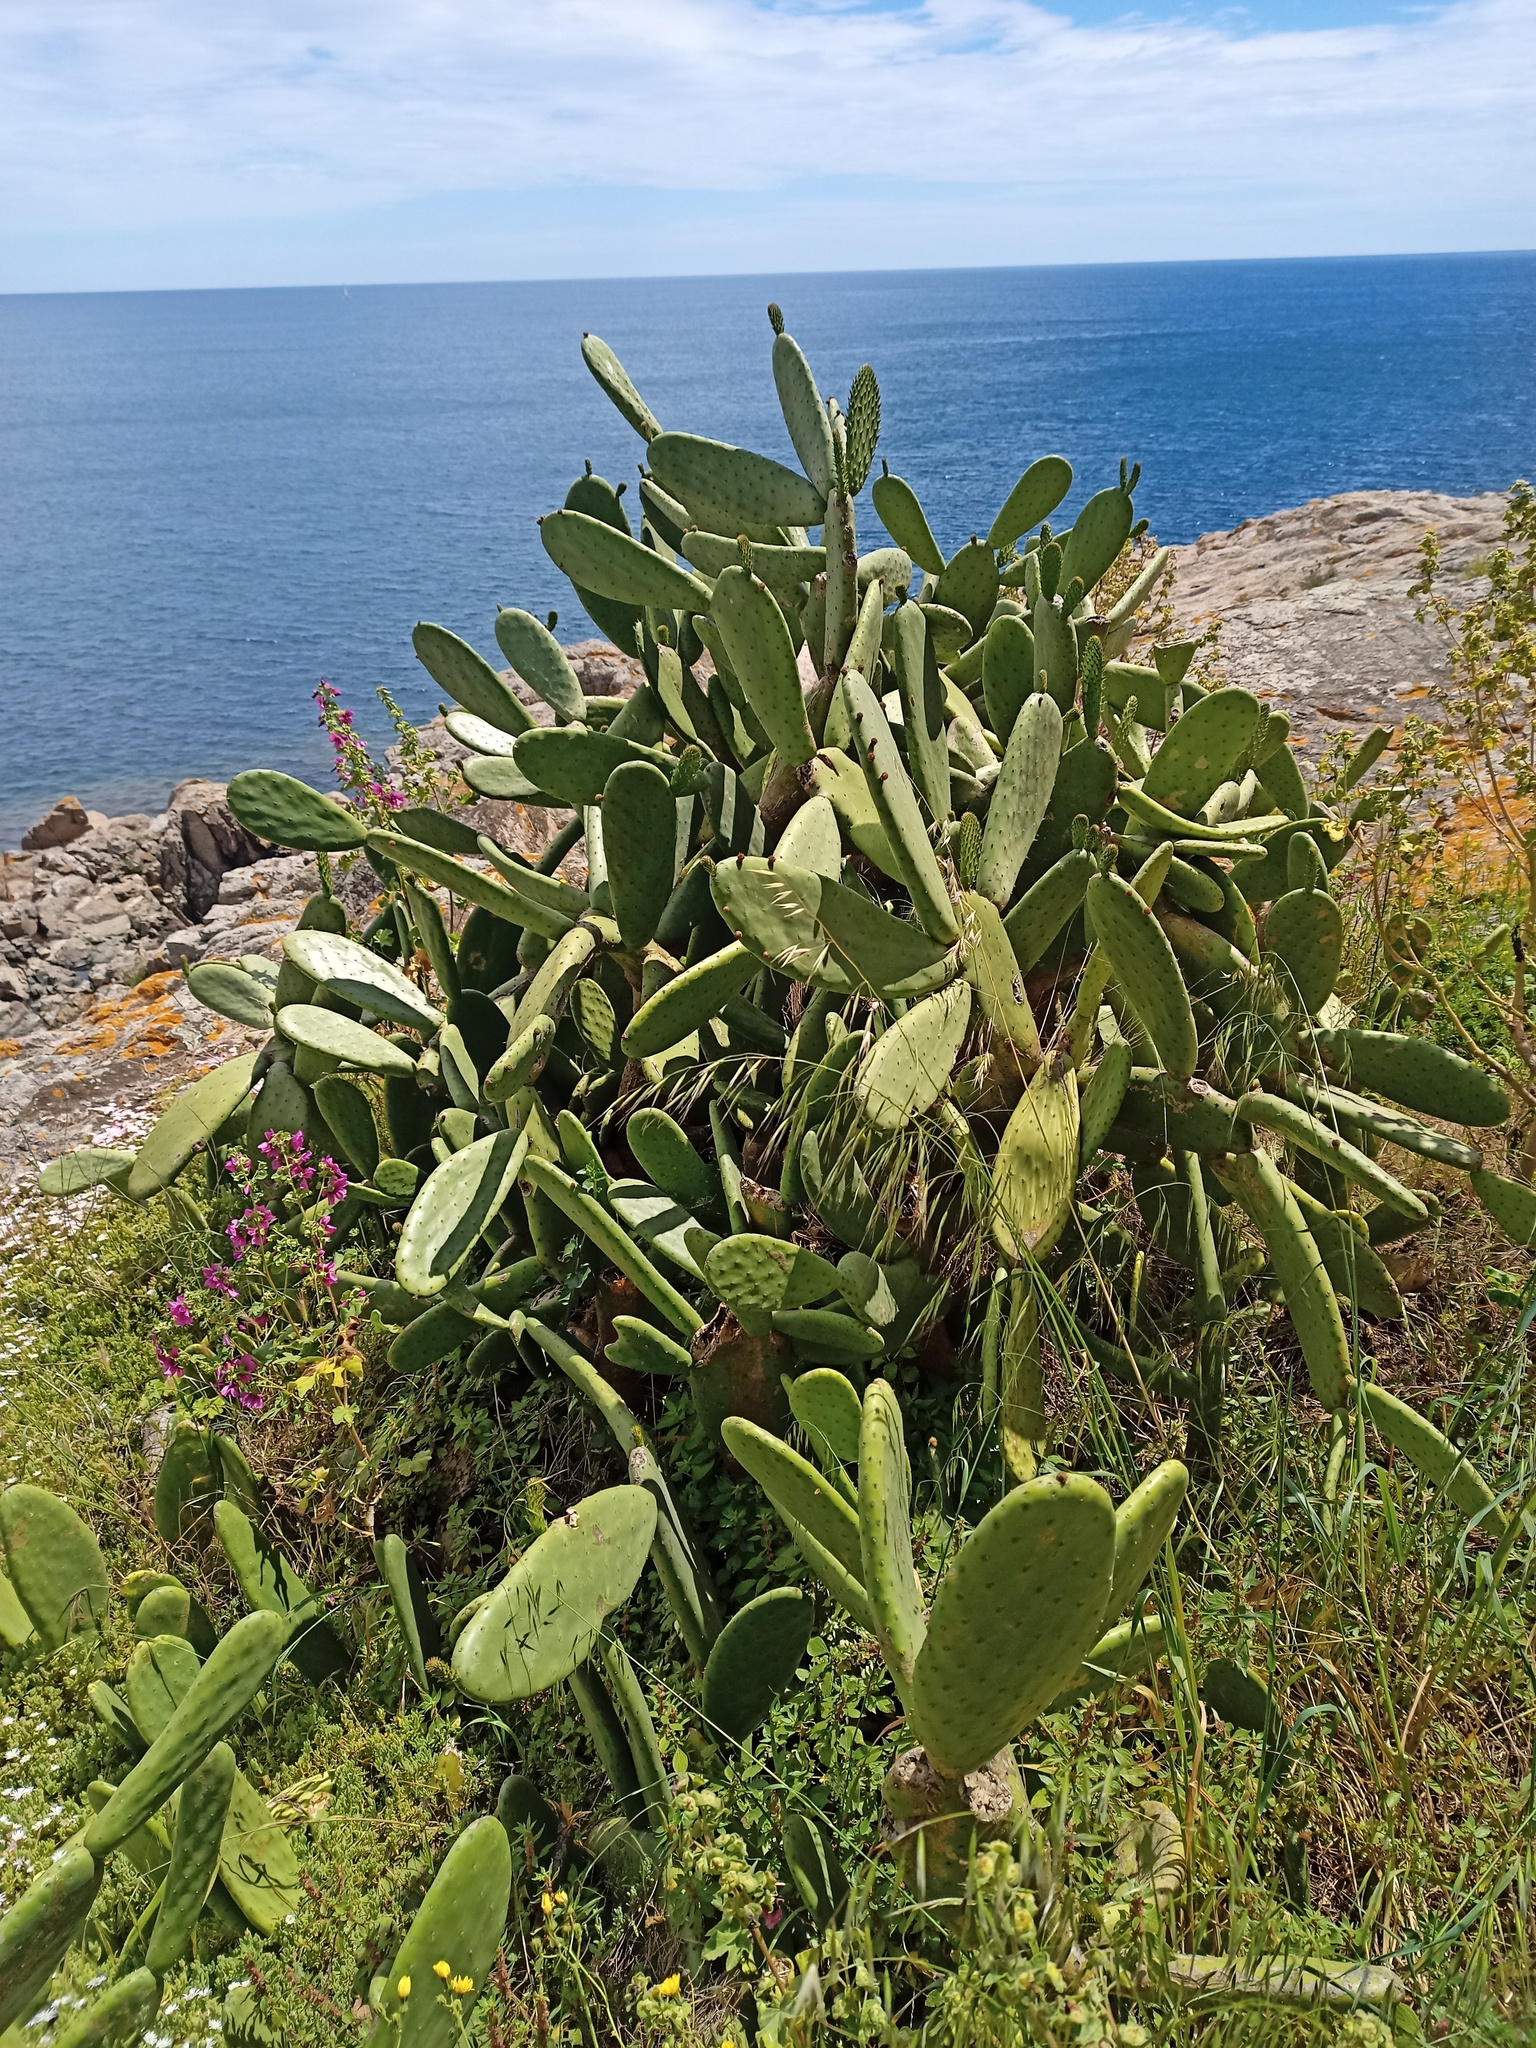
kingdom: Plantae
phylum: Tracheophyta
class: Magnoliopsida
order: Caryophyllales
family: Cactaceae
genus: Opuntia
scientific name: Opuntia ficus-indica
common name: Barbary fig
